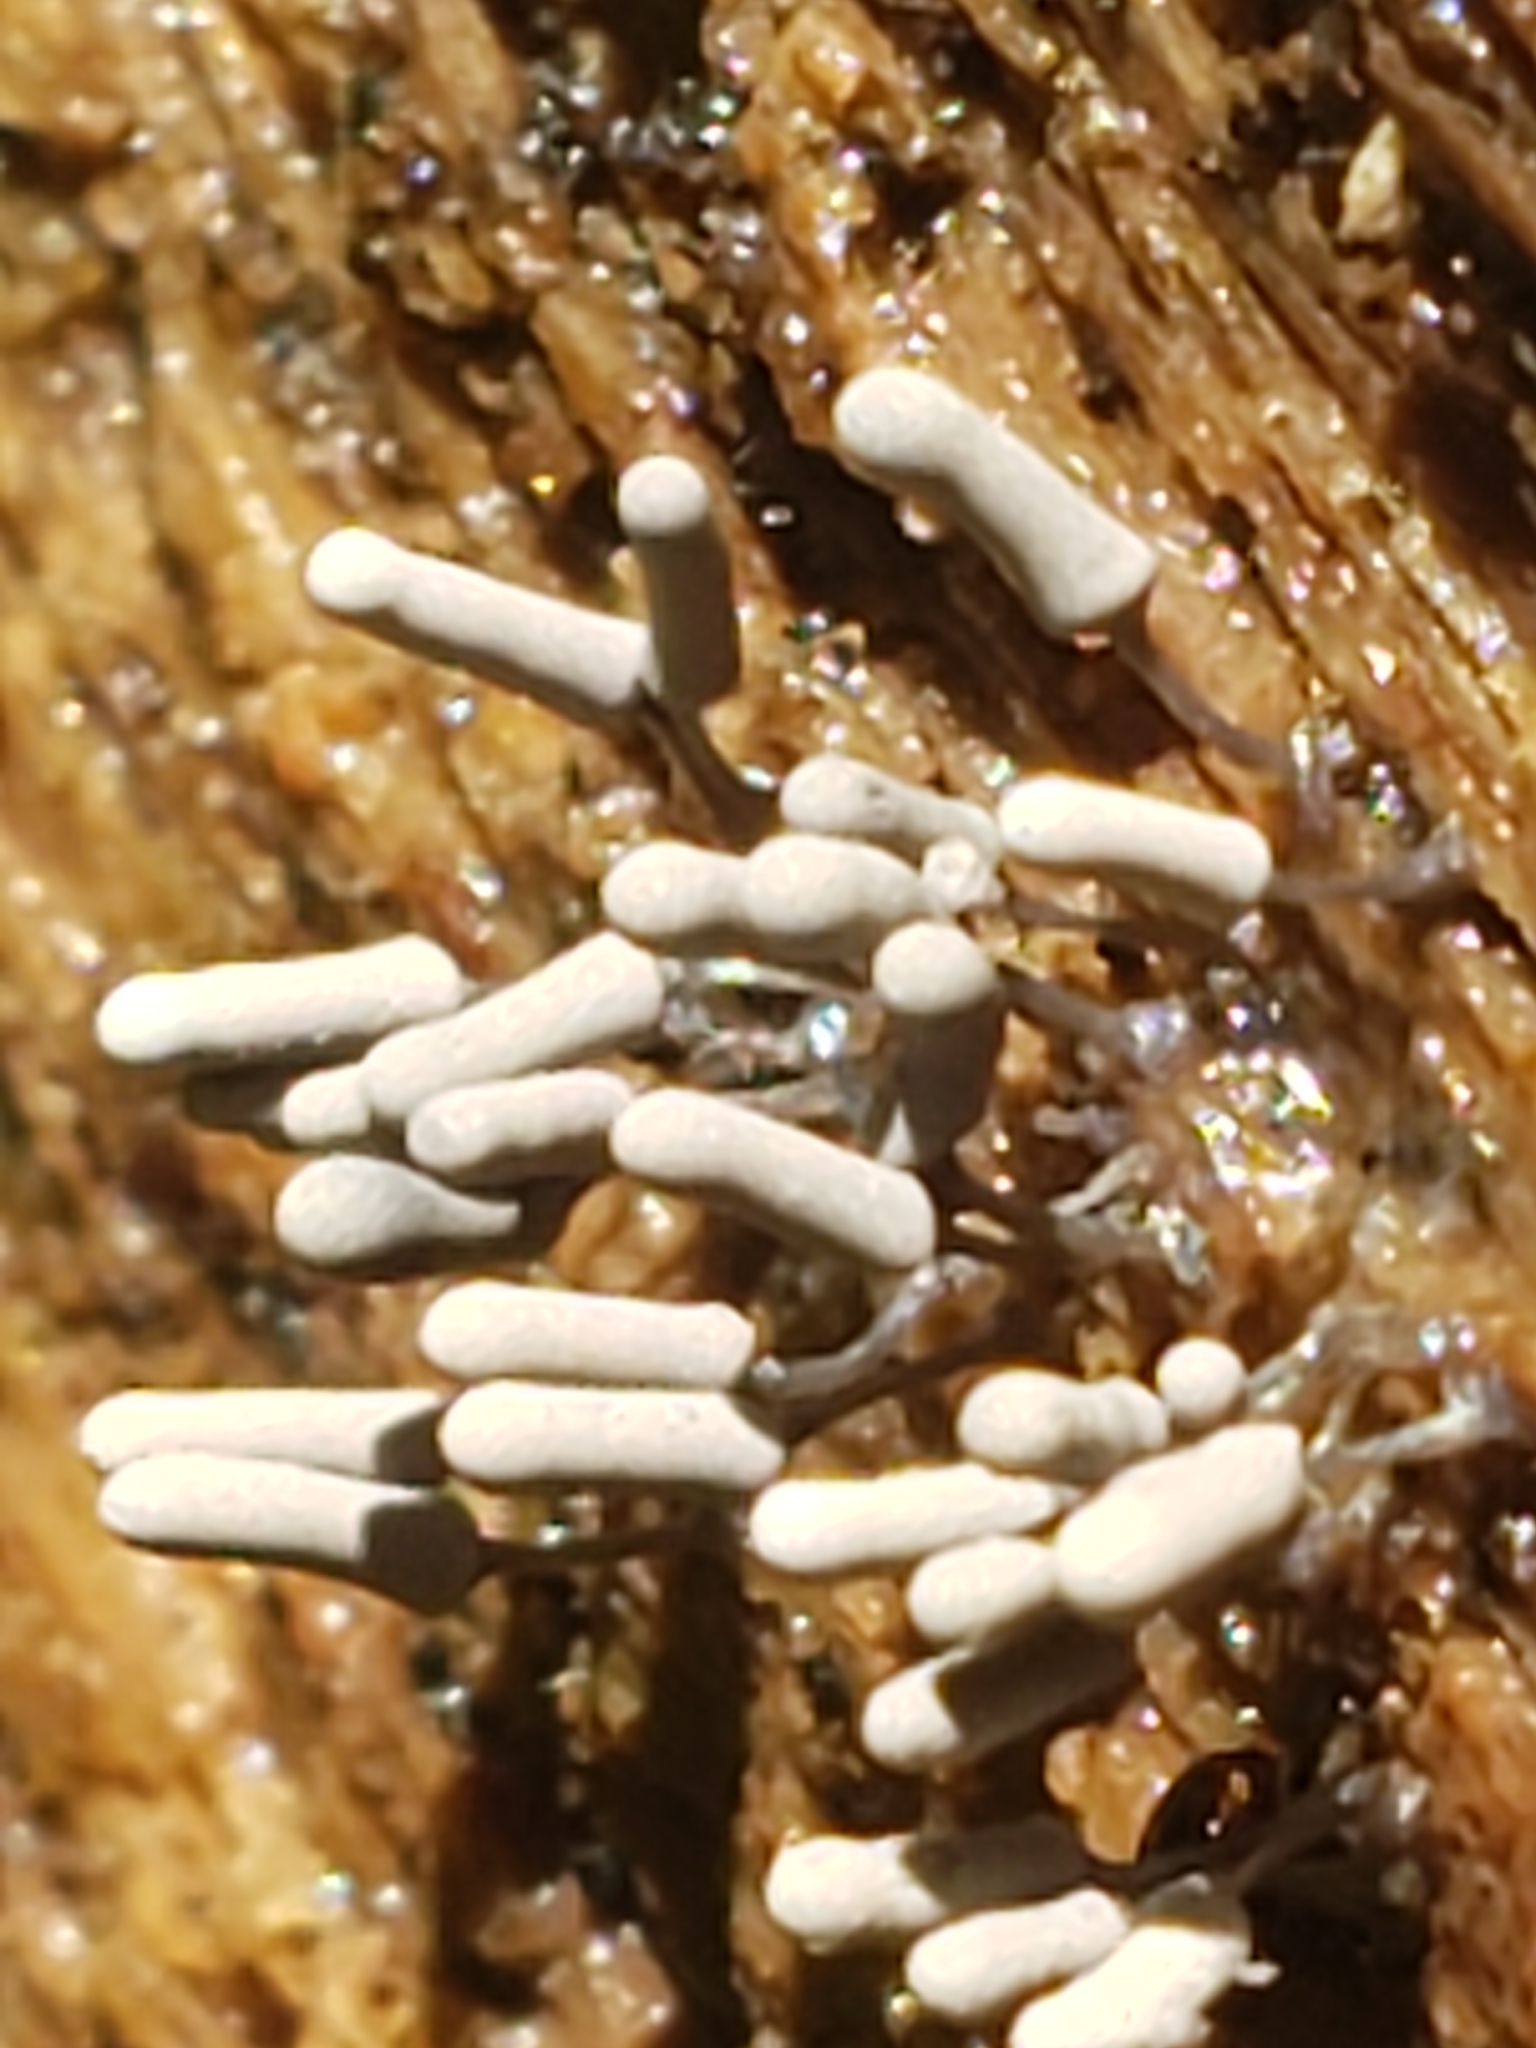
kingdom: Protozoa
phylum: Mycetozoa
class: Myxomycetes
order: Trichiales
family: Arcyriaceae
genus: Arcyria
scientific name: Arcyria cinerea
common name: White carnival candy slime mold
